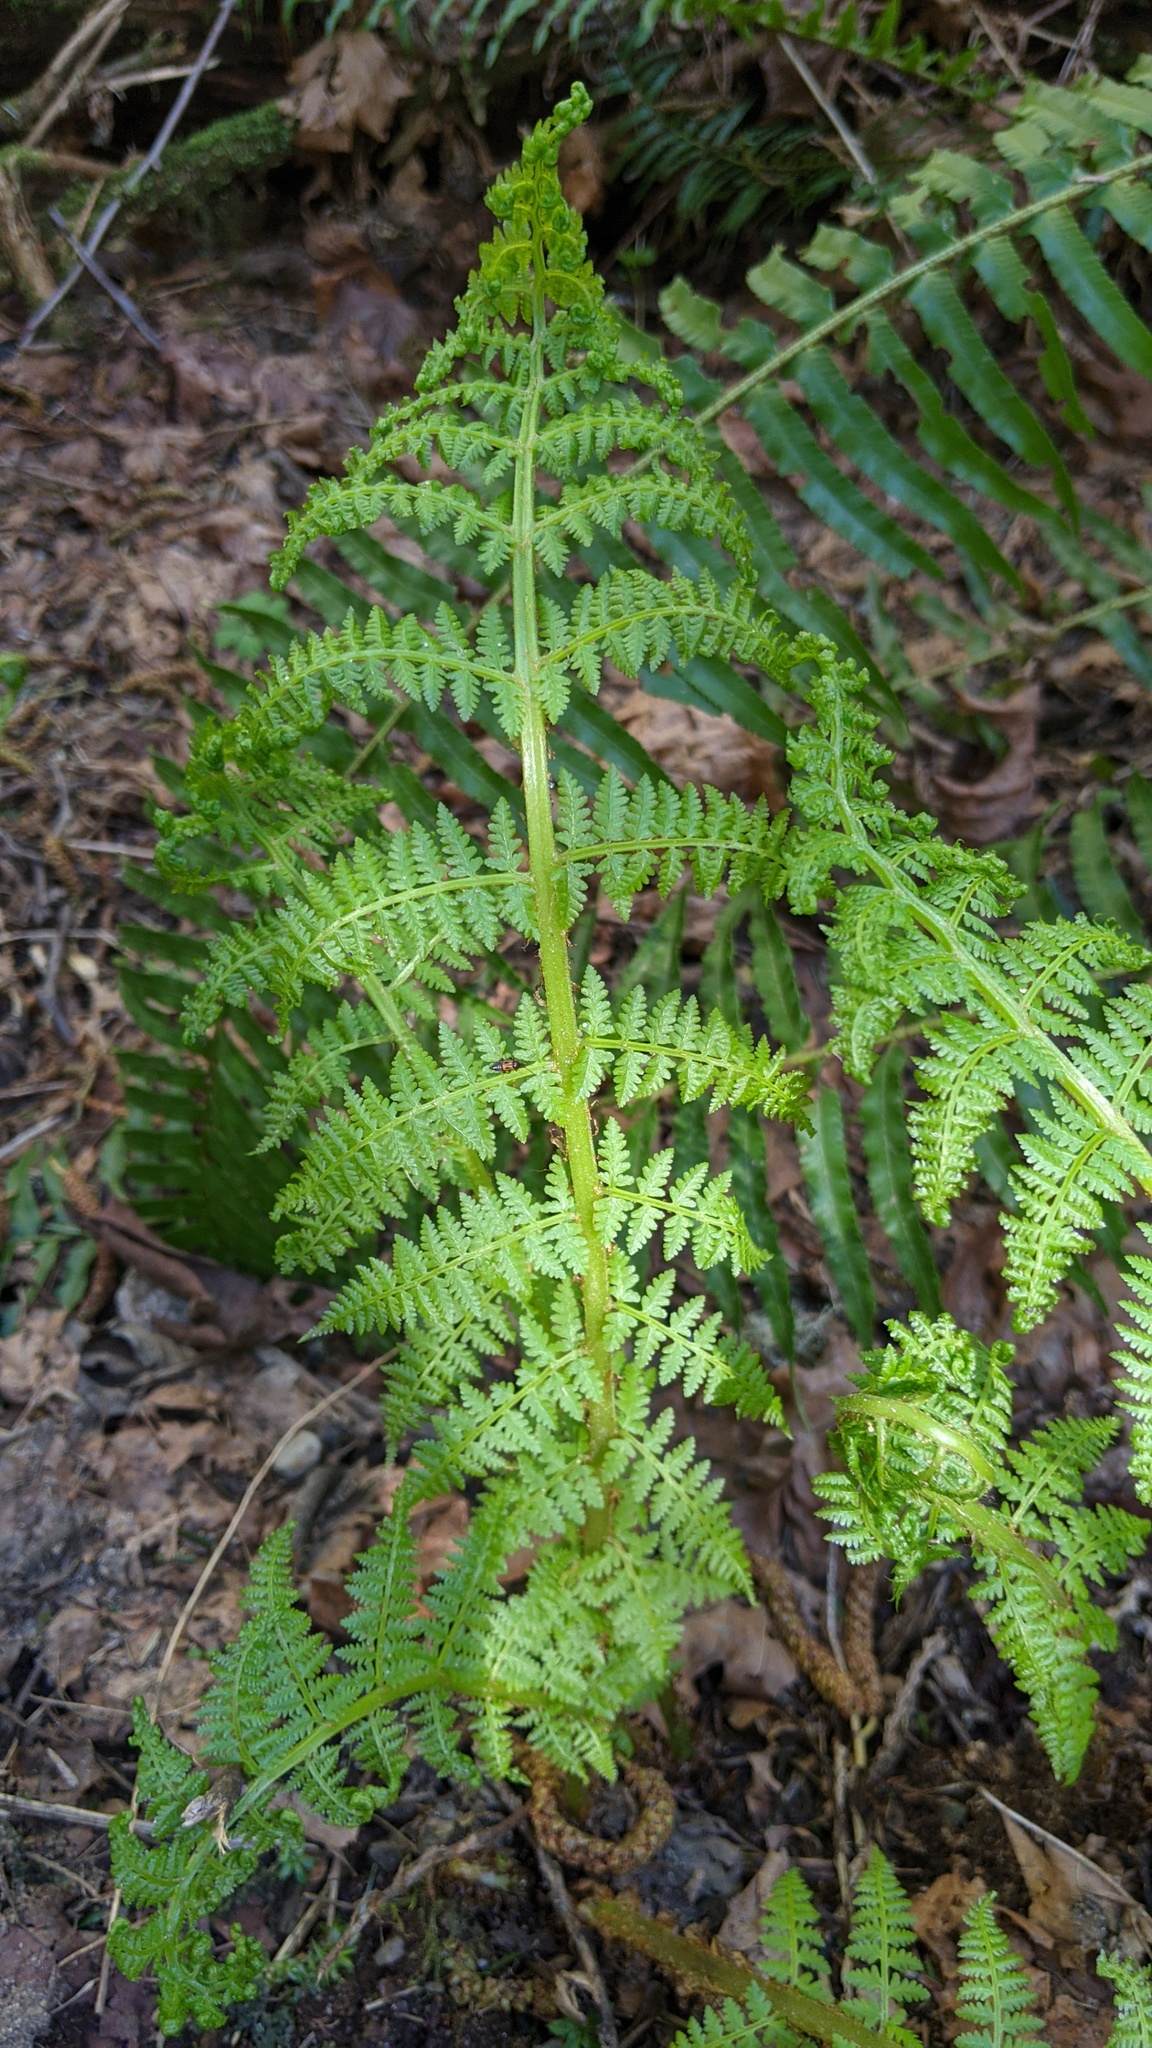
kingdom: Plantae
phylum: Tracheophyta
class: Polypodiopsida
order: Polypodiales
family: Athyriaceae
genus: Athyrium
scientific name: Athyrium filix-femina
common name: Lady fern
